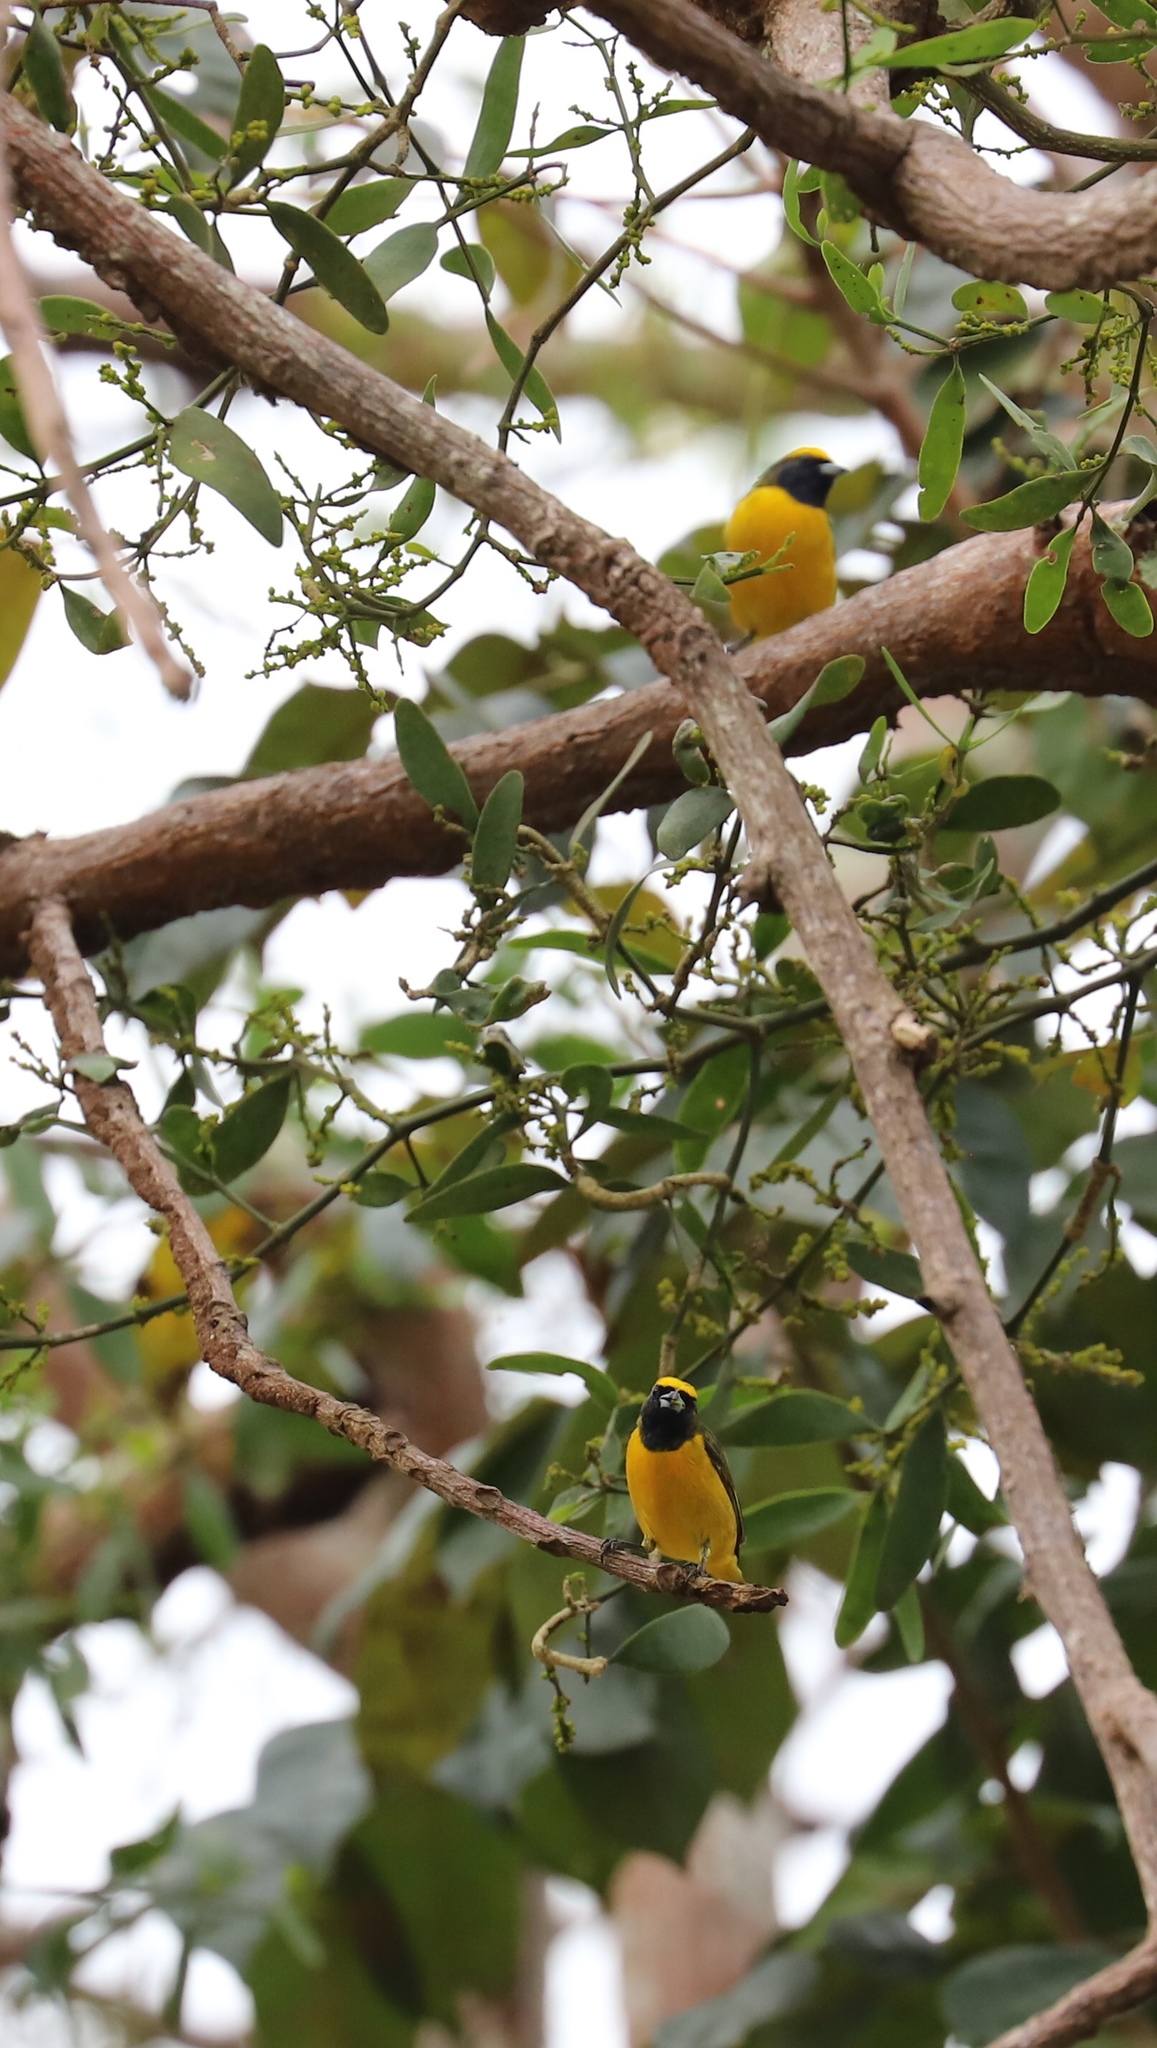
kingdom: Animalia
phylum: Chordata
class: Aves
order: Passeriformes
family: Fringillidae
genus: Euphonia
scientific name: Euphonia luteicapilla
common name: Yellow-crowned euphonia
